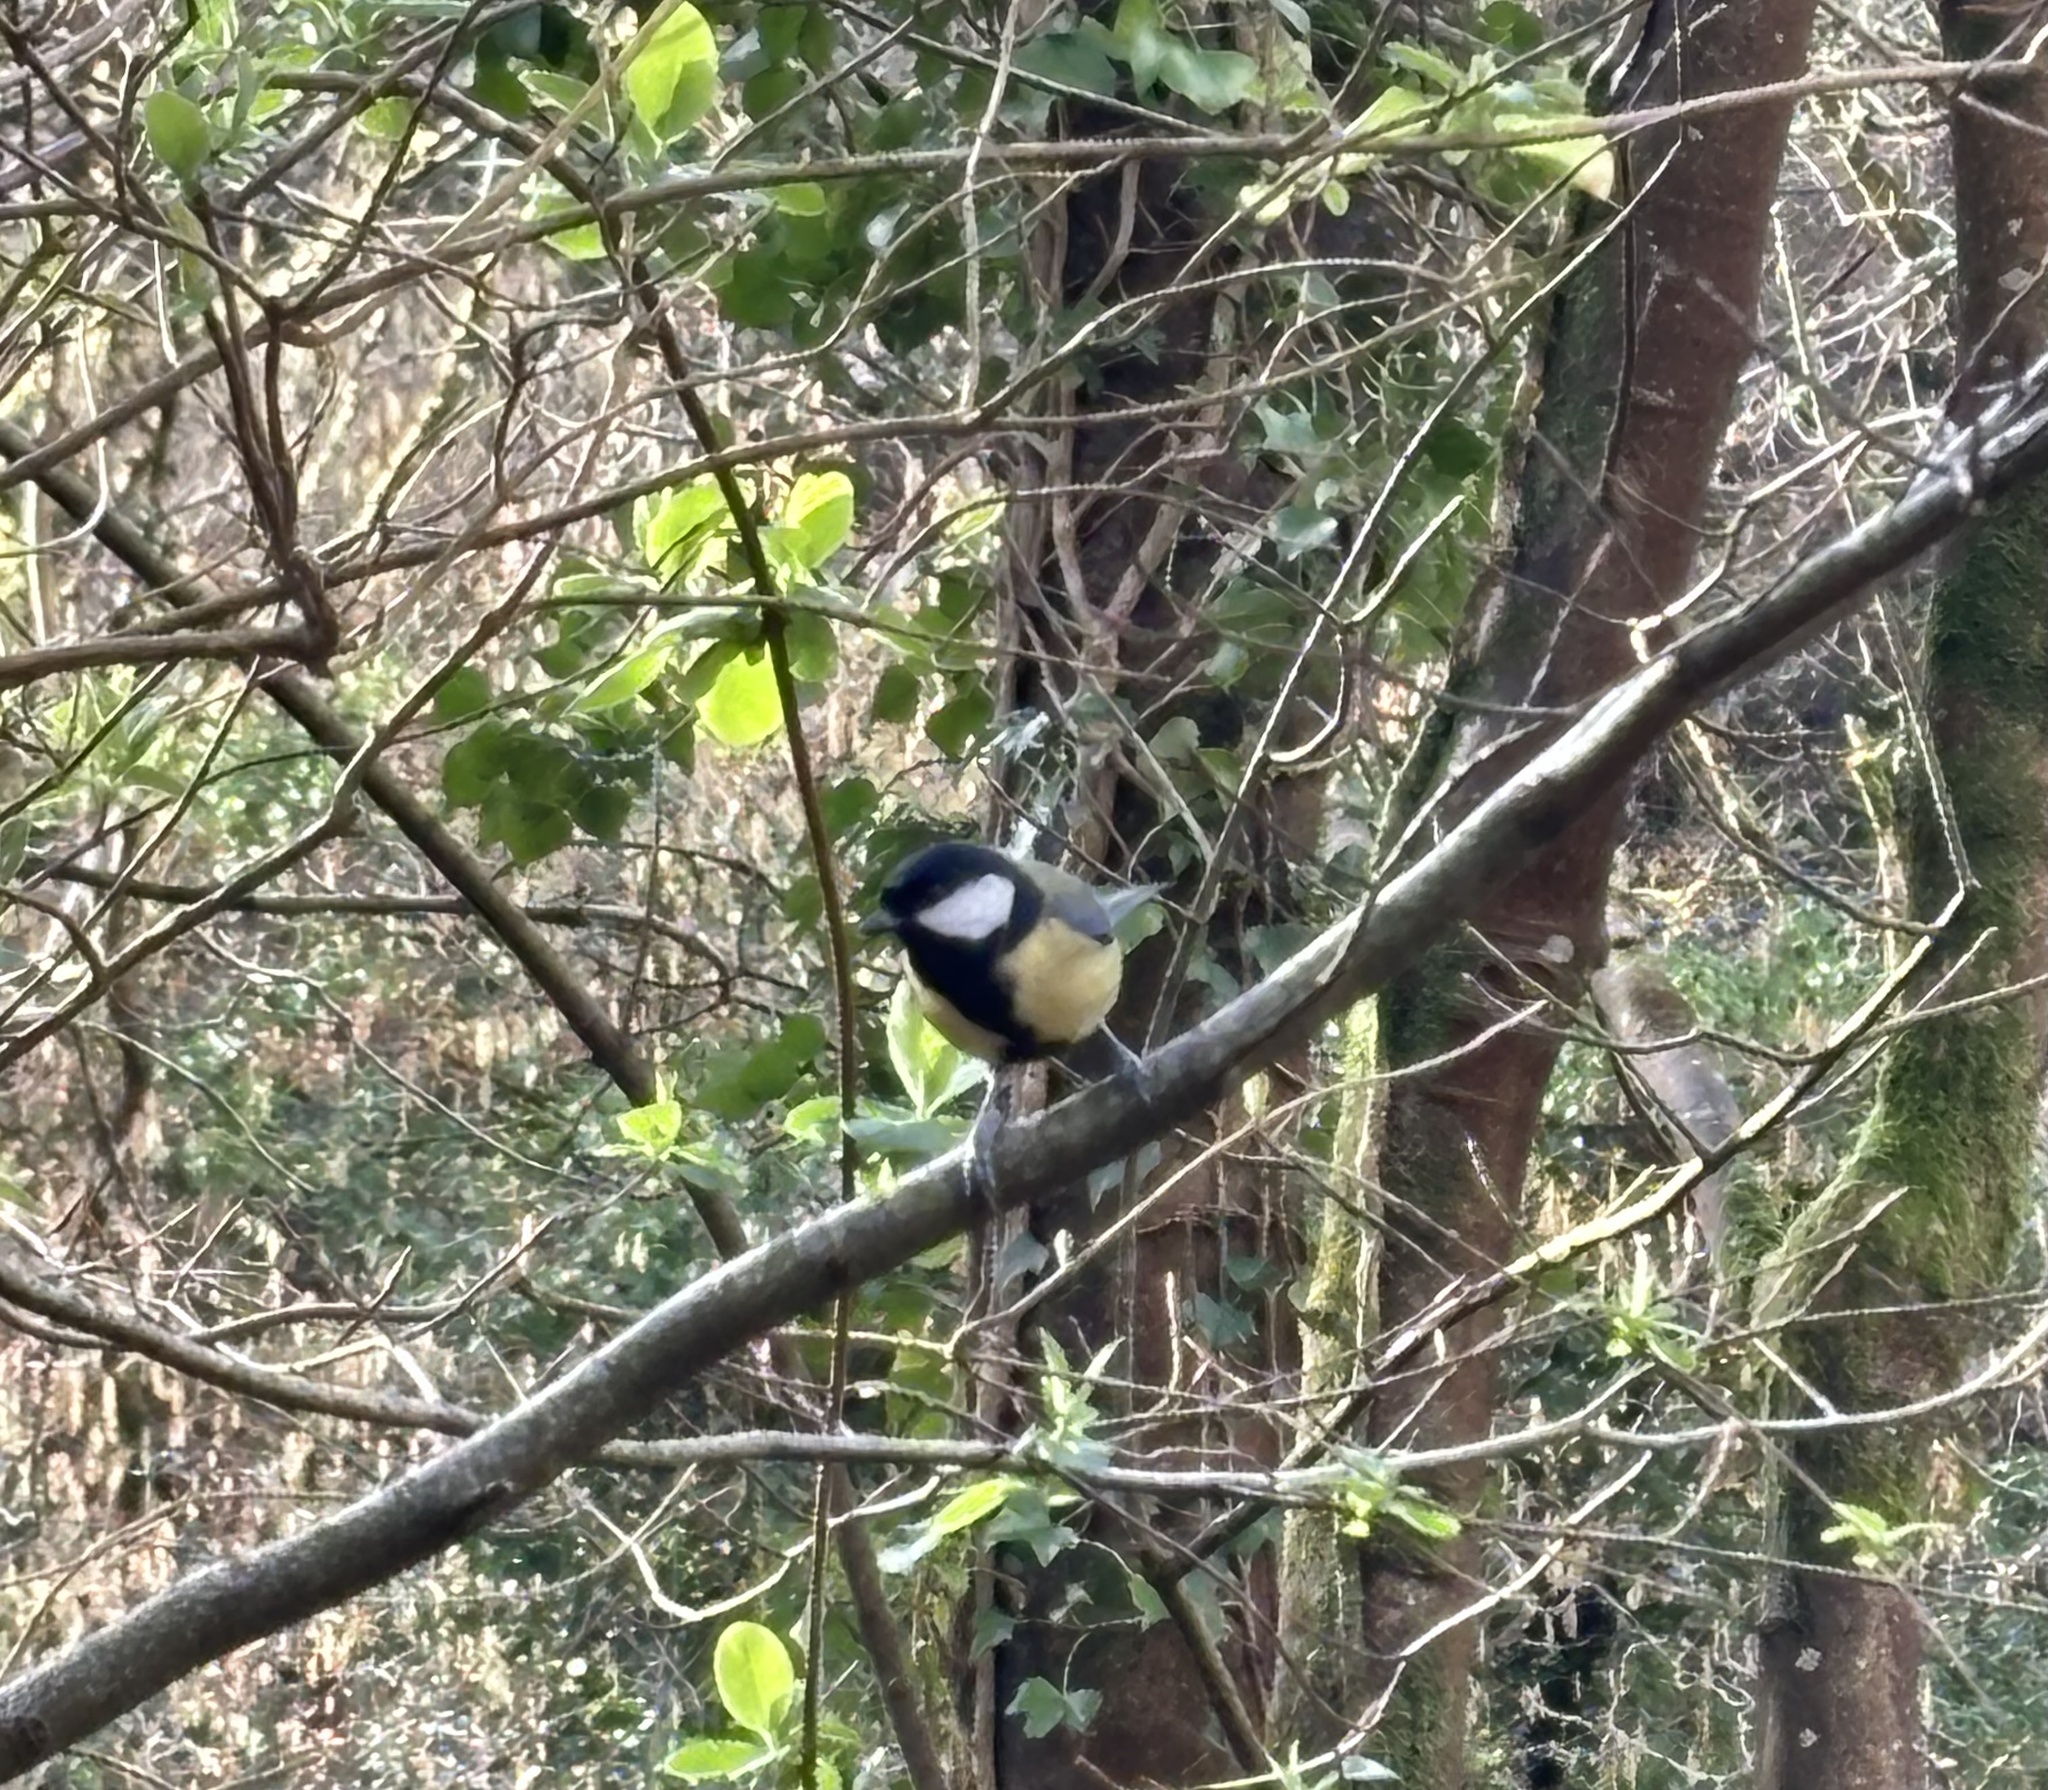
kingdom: Animalia
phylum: Chordata
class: Aves
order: Passeriformes
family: Paridae
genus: Parus
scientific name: Parus major
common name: Great tit
